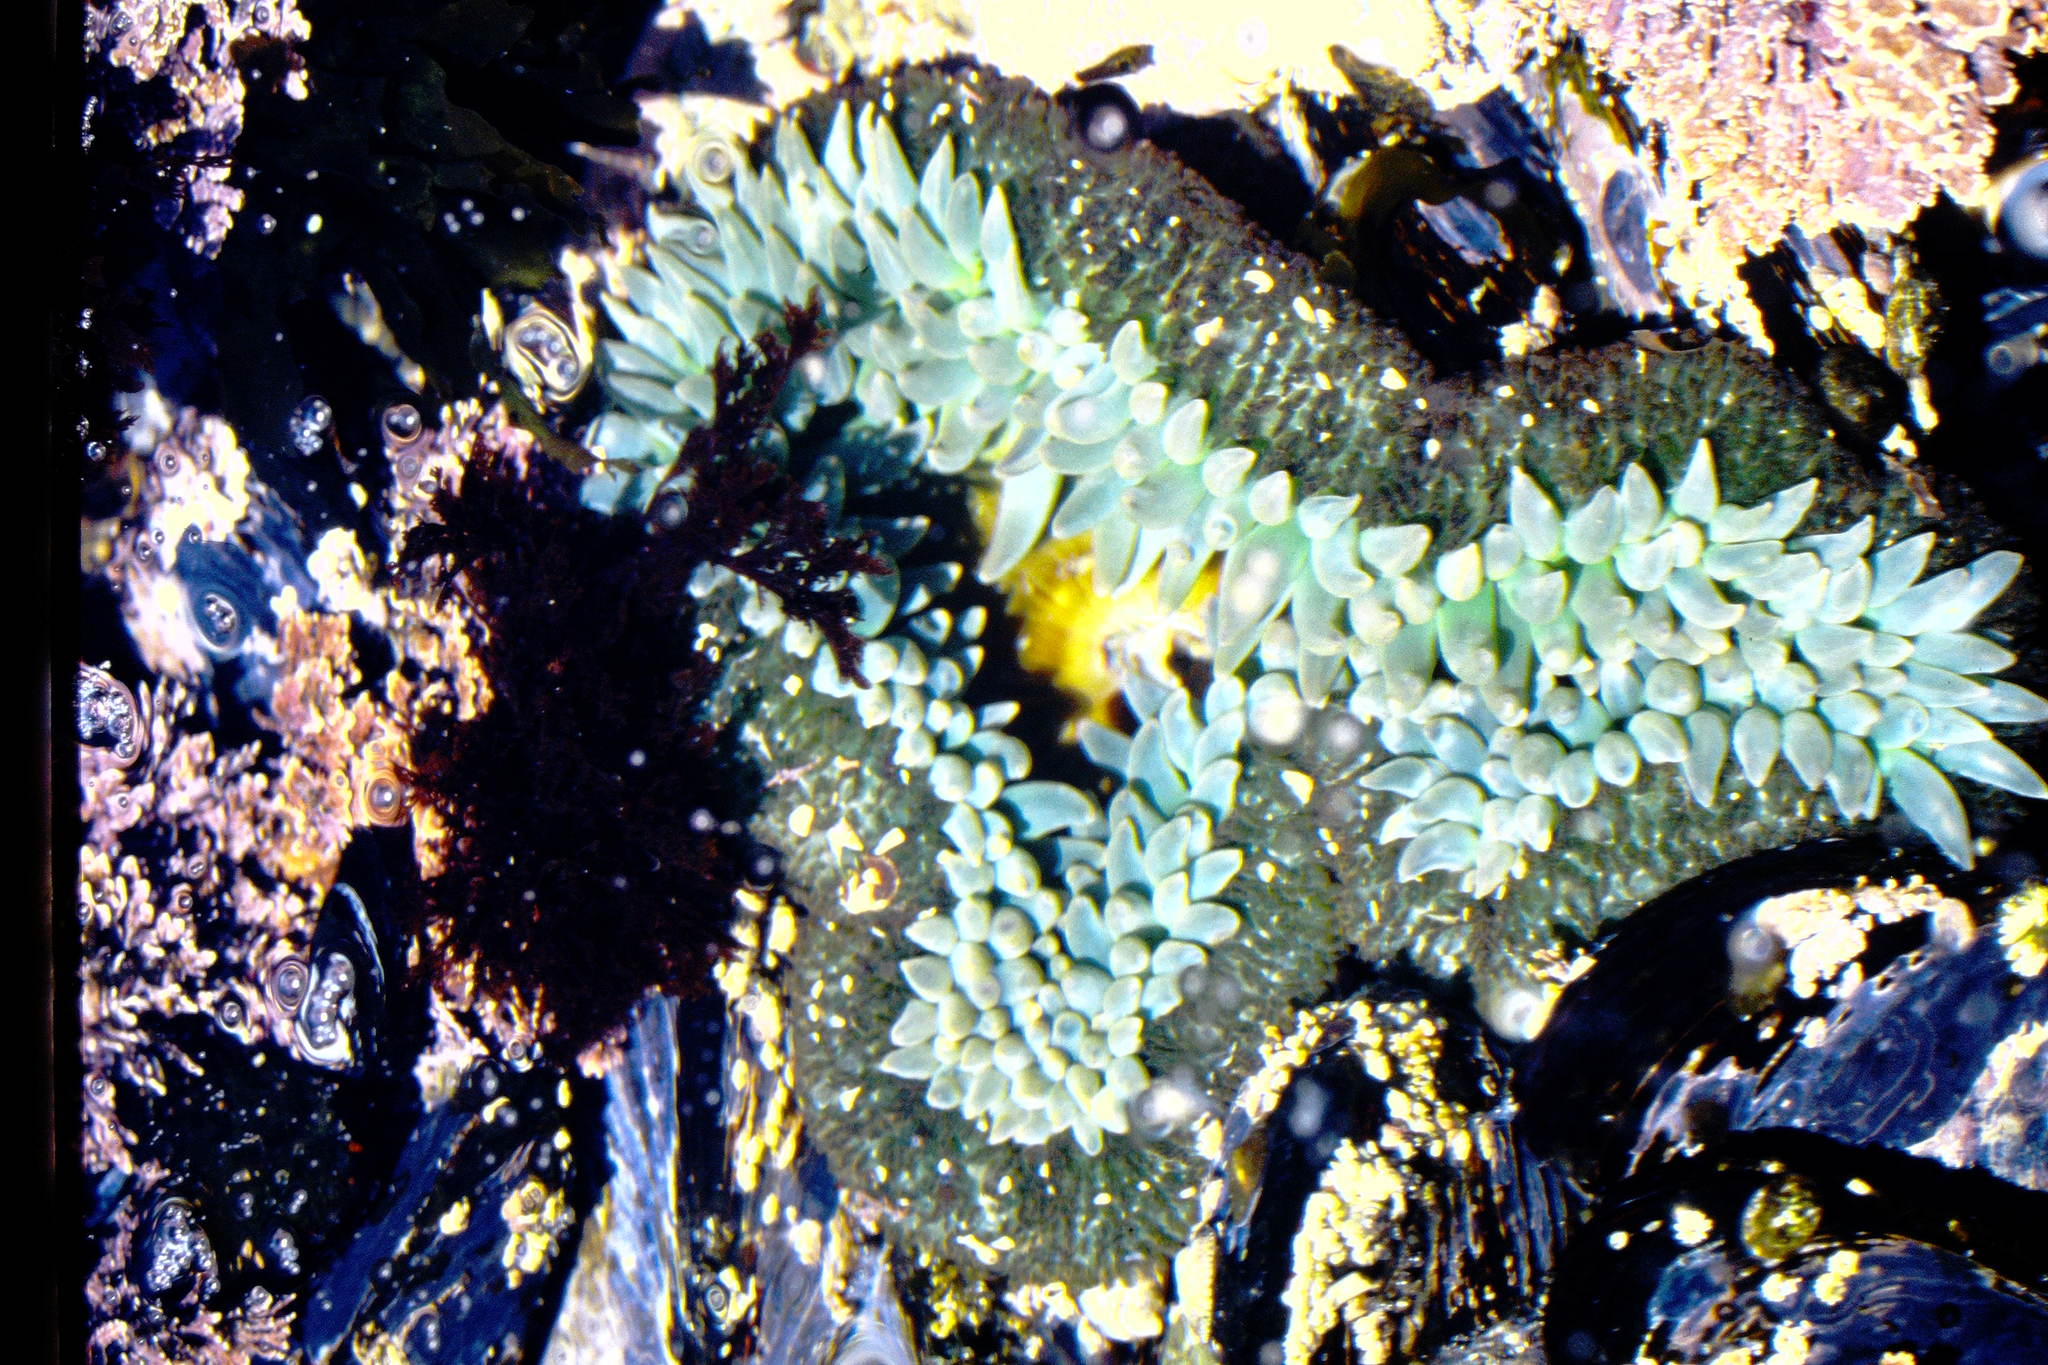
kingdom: Animalia
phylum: Cnidaria
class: Anthozoa
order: Actiniaria
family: Actiniidae
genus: Anthopleura
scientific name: Anthopleura xanthogrammica
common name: Giant green anemone
